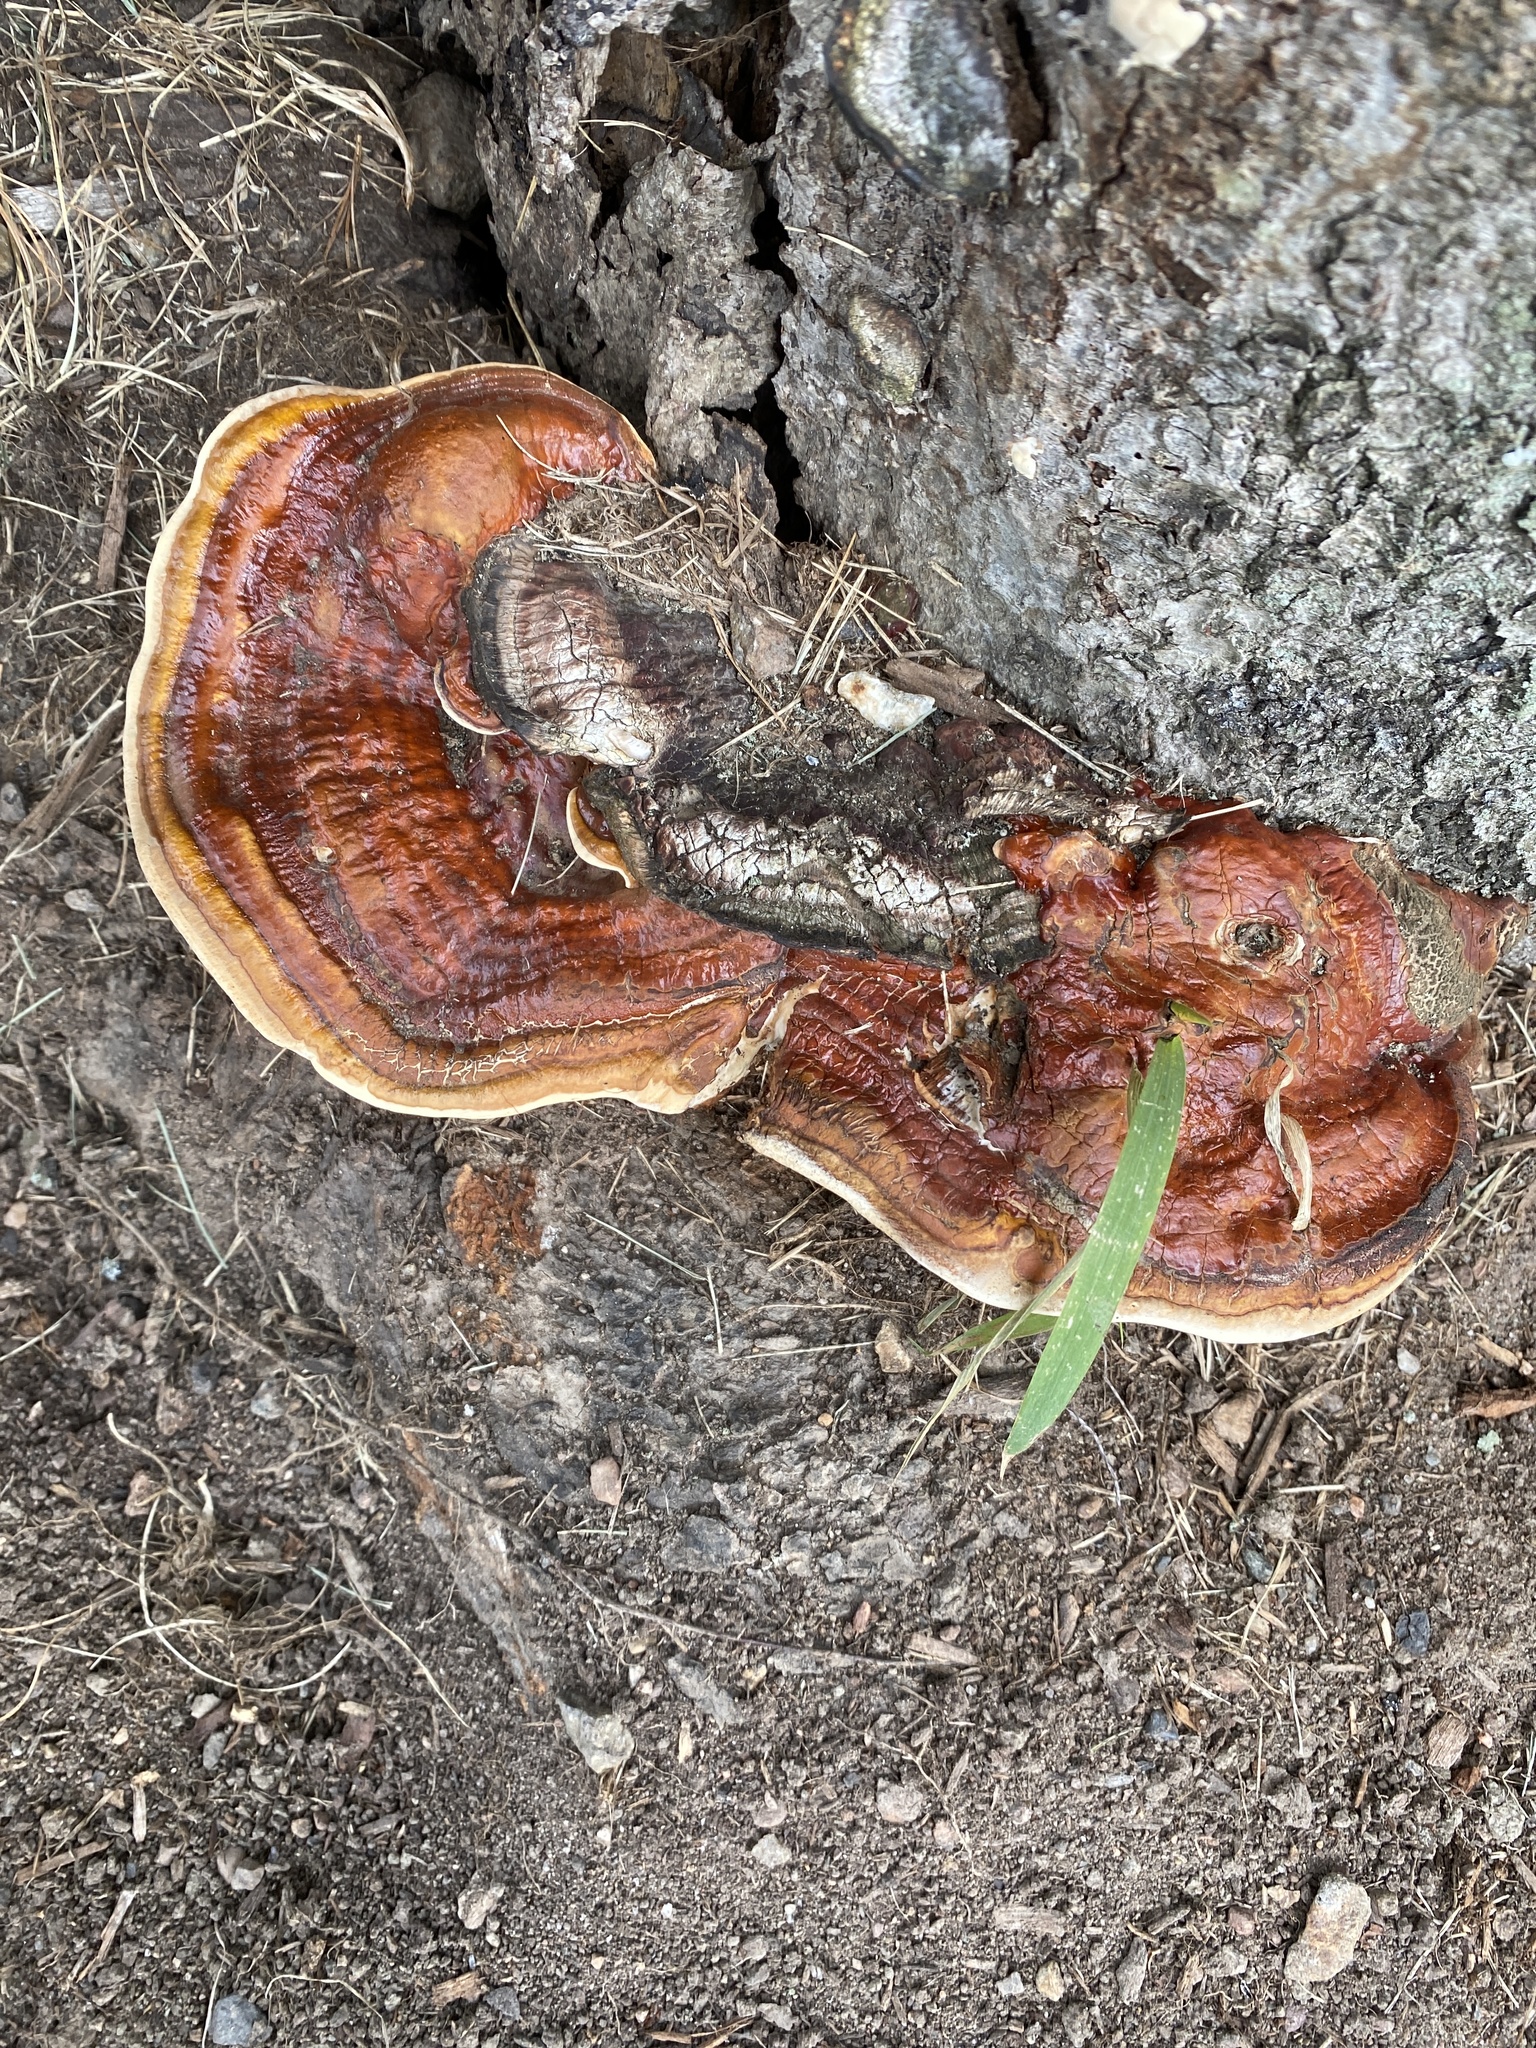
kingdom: Fungi
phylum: Basidiomycota
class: Agaricomycetes
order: Polyporales
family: Polyporaceae
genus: Ganoderma
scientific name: Ganoderma resinaceum
